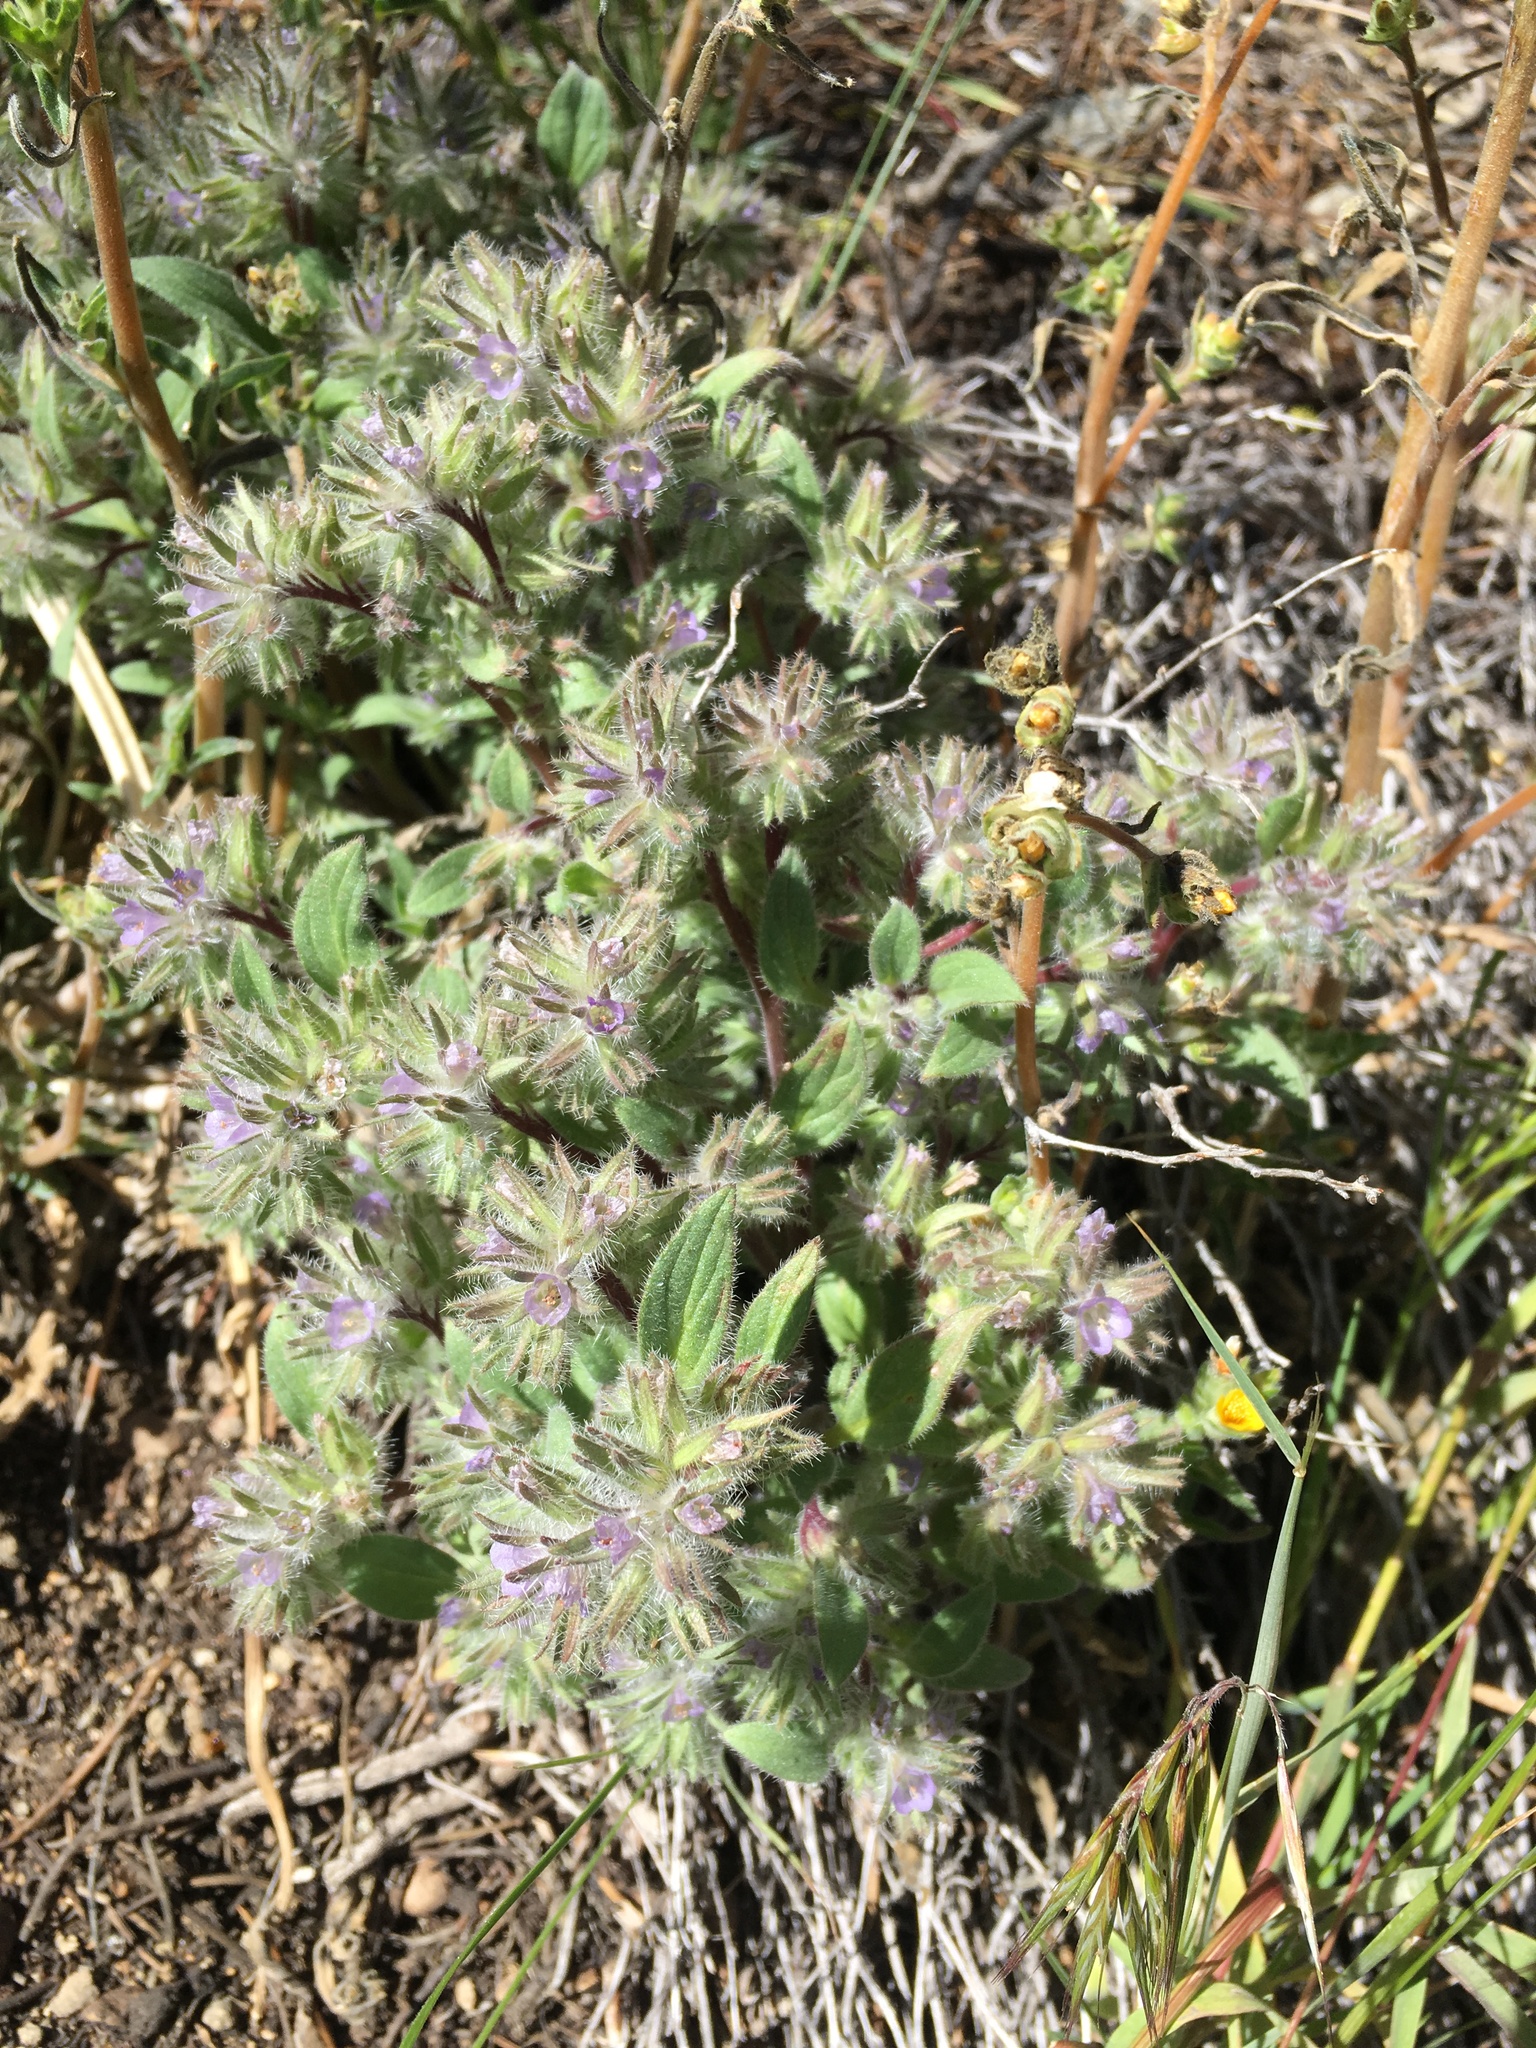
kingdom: Plantae
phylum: Tracheophyta
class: Magnoliopsida
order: Boraginales
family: Hydrophyllaceae
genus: Phacelia
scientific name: Phacelia novenmillensis
